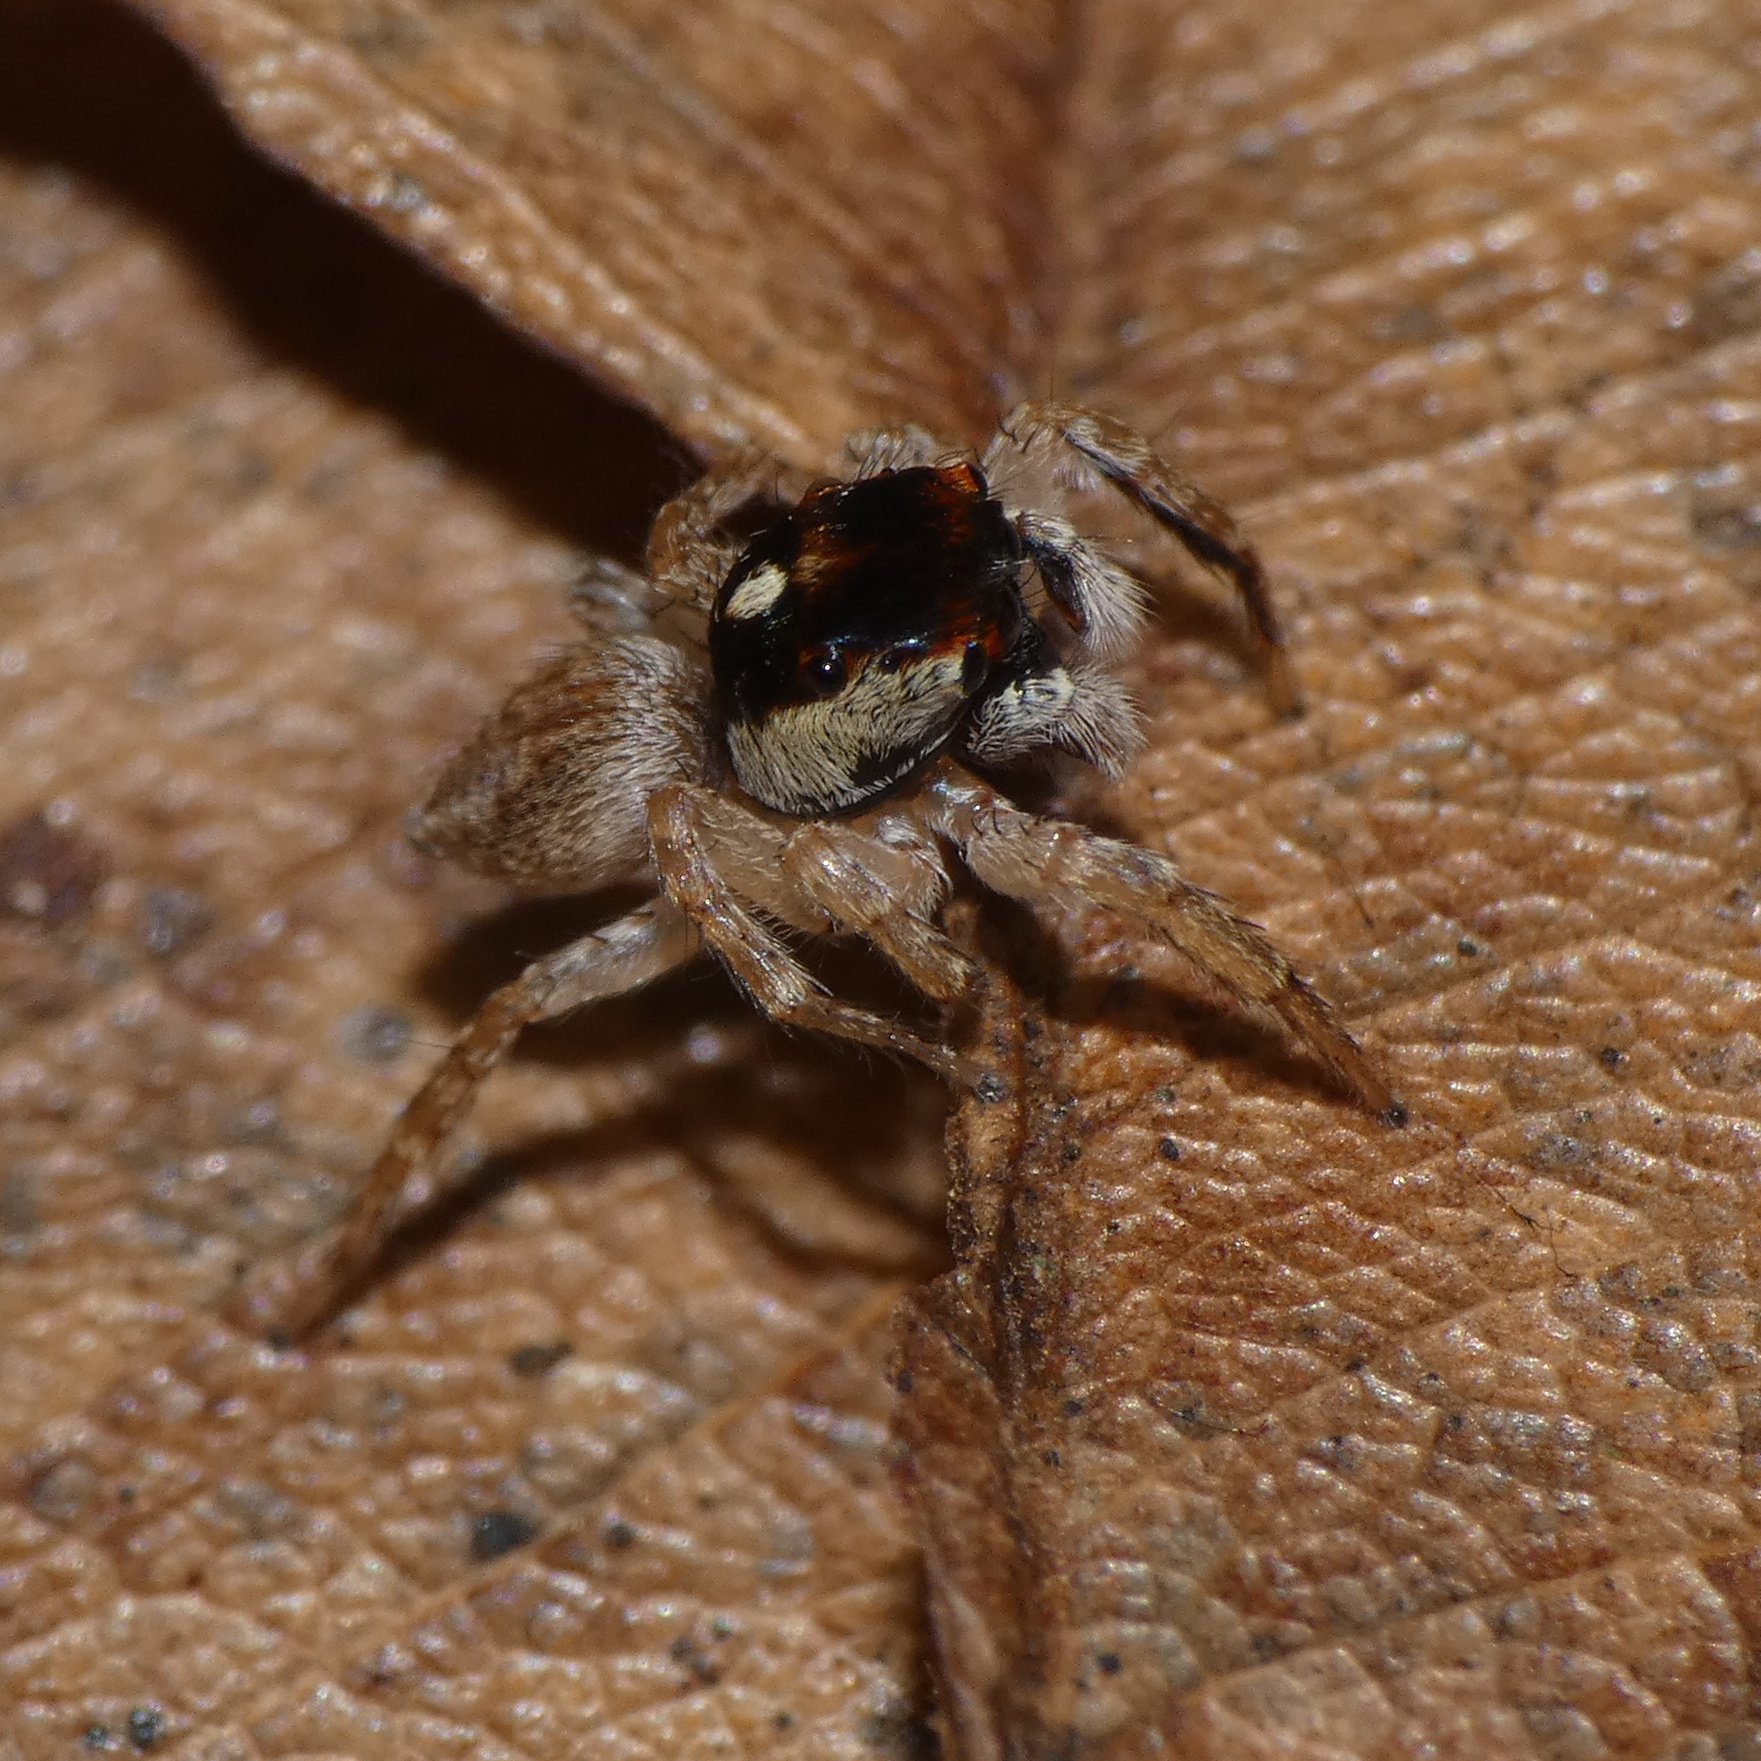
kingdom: Animalia
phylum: Arthropoda
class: Arachnida
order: Araneae
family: Salticidae
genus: Thyenula
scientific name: Thyenula munda
